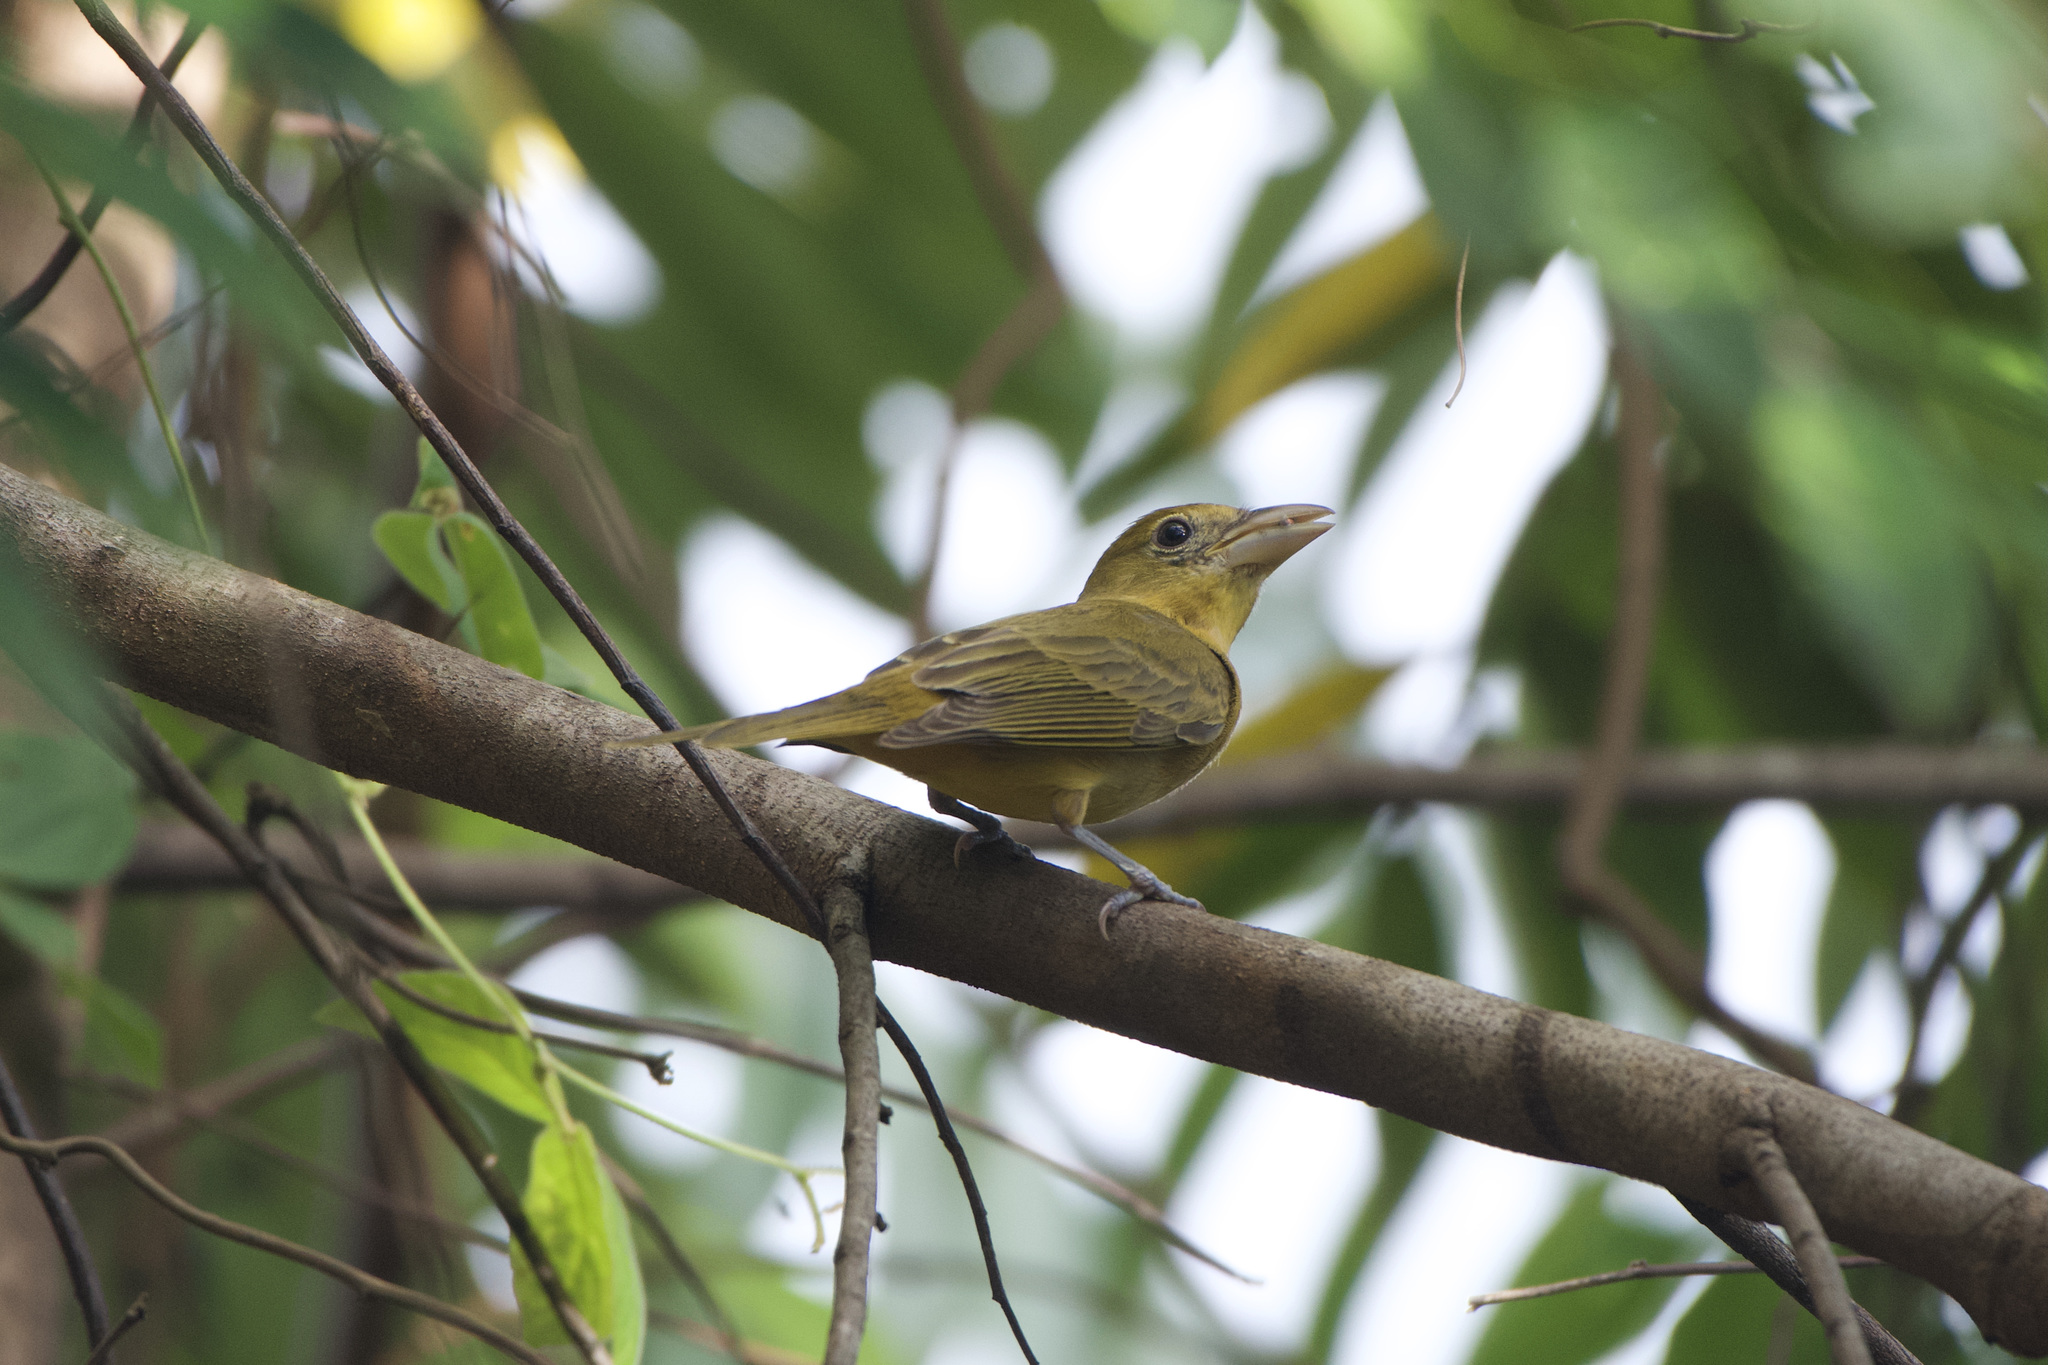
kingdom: Animalia
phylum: Chordata
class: Aves
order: Passeriformes
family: Cardinalidae
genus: Piranga
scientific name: Piranga rubra
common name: Summer tanager
